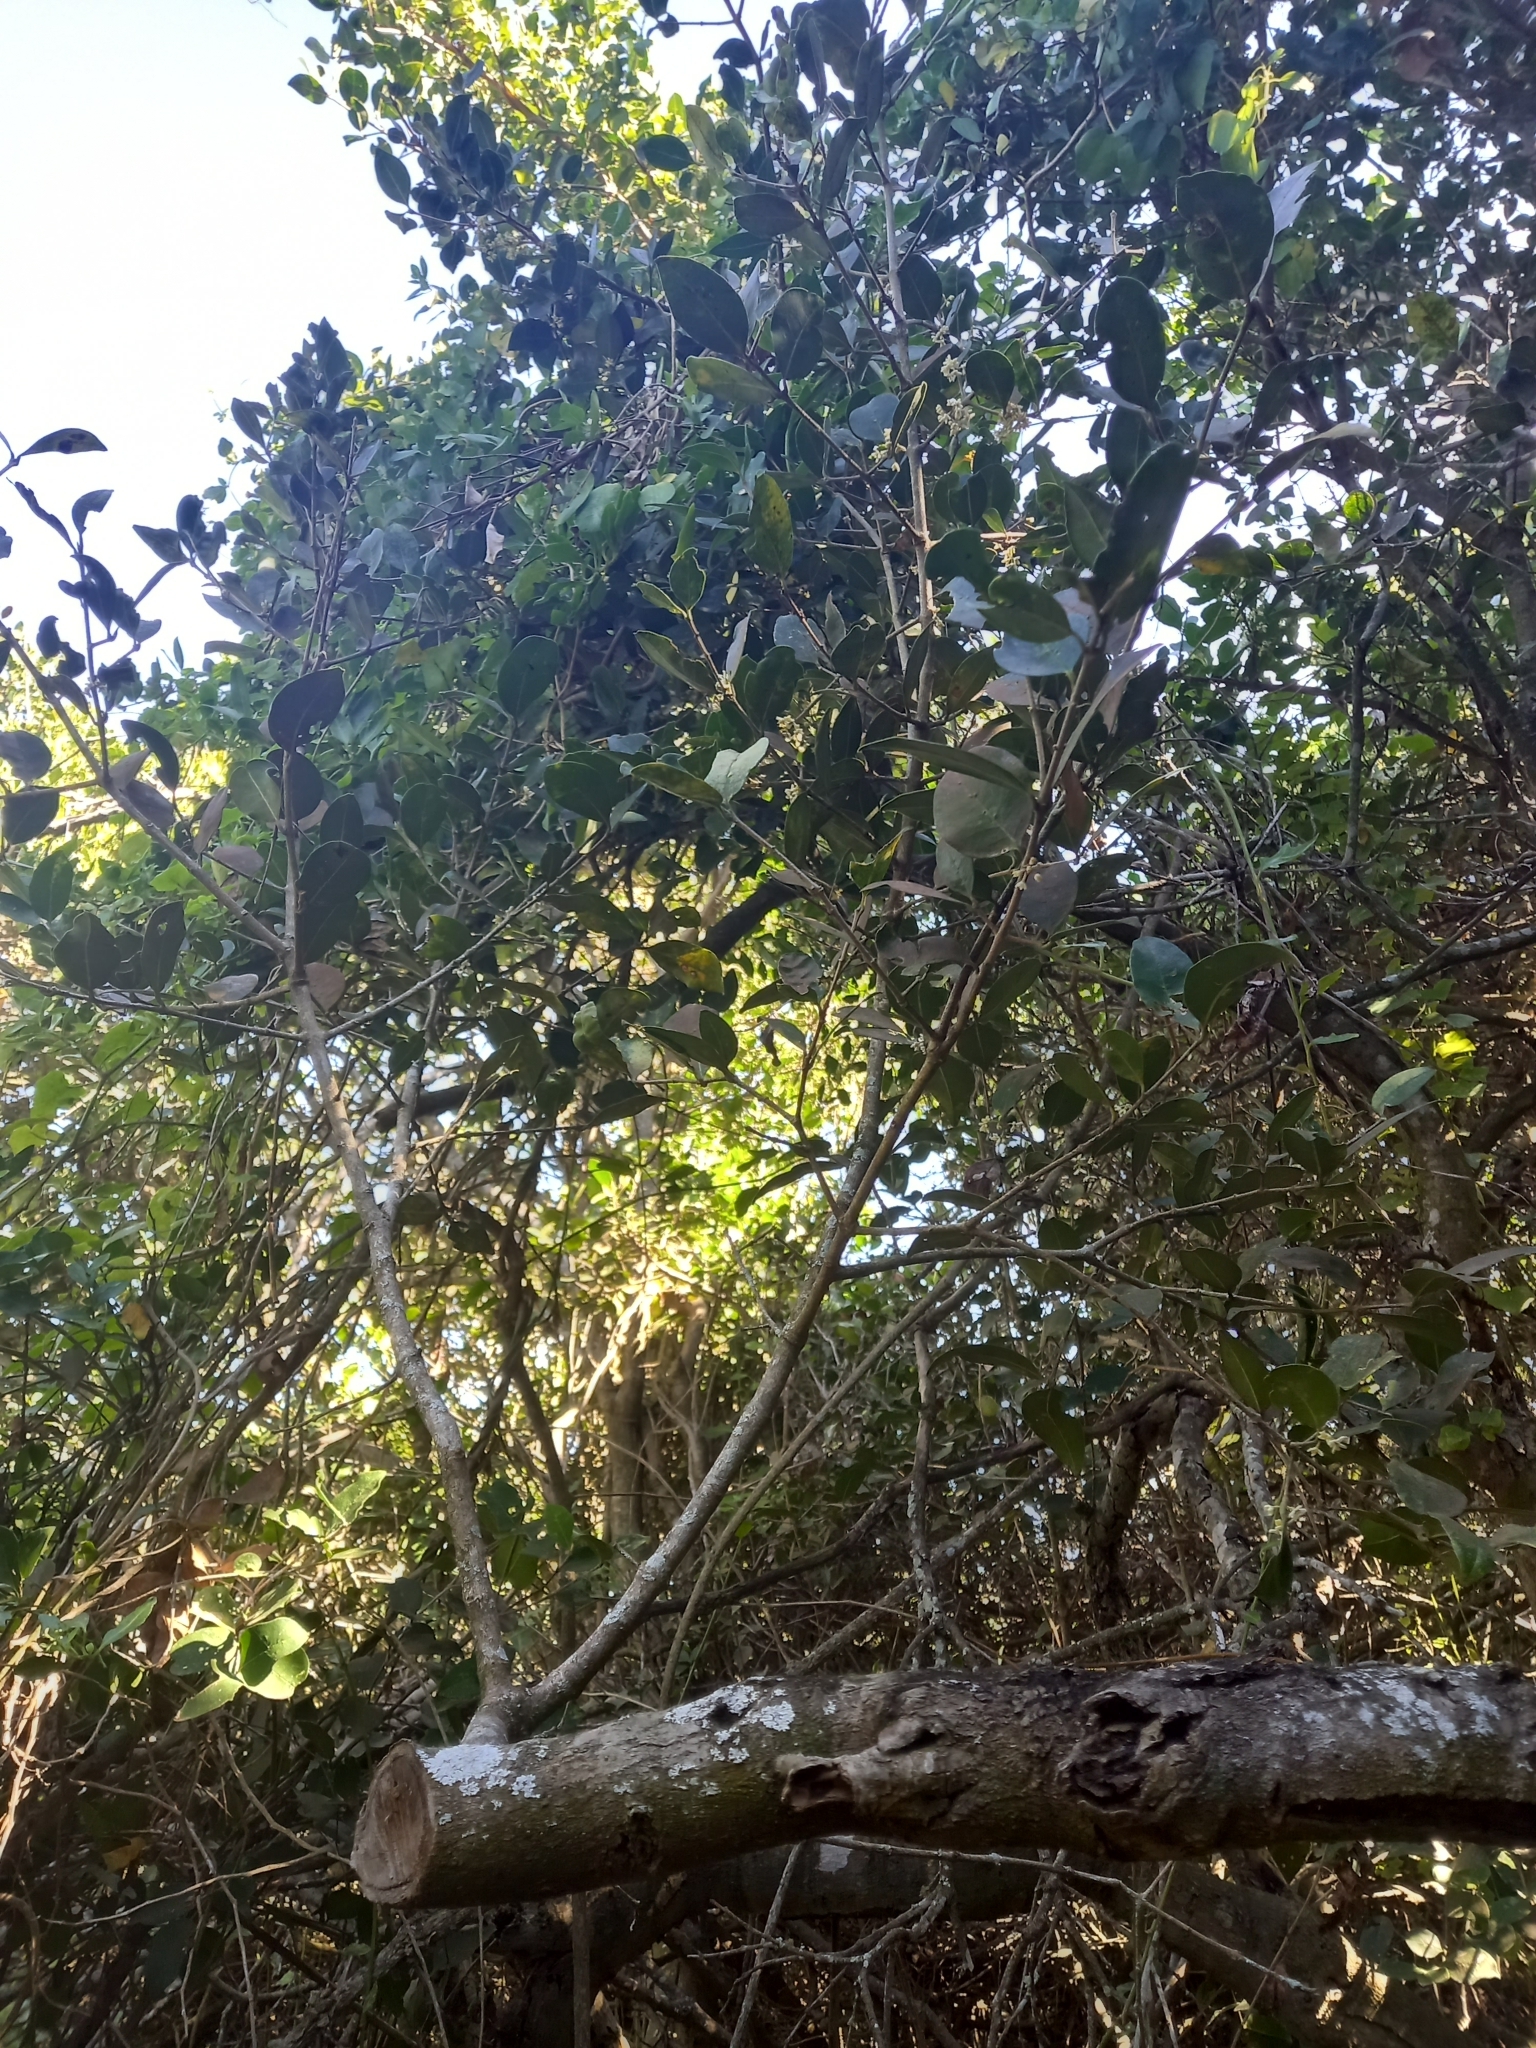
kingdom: Plantae
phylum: Tracheophyta
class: Magnoliopsida
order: Lamiales
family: Oleaceae
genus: Noronhia
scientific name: Noronhia foveolata
